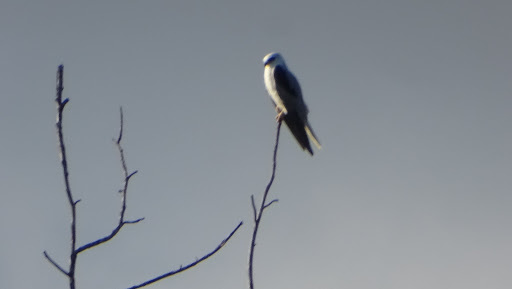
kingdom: Animalia
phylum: Chordata
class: Aves
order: Accipitriformes
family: Accipitridae
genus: Elanus
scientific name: Elanus leucurus
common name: White-tailed kite
